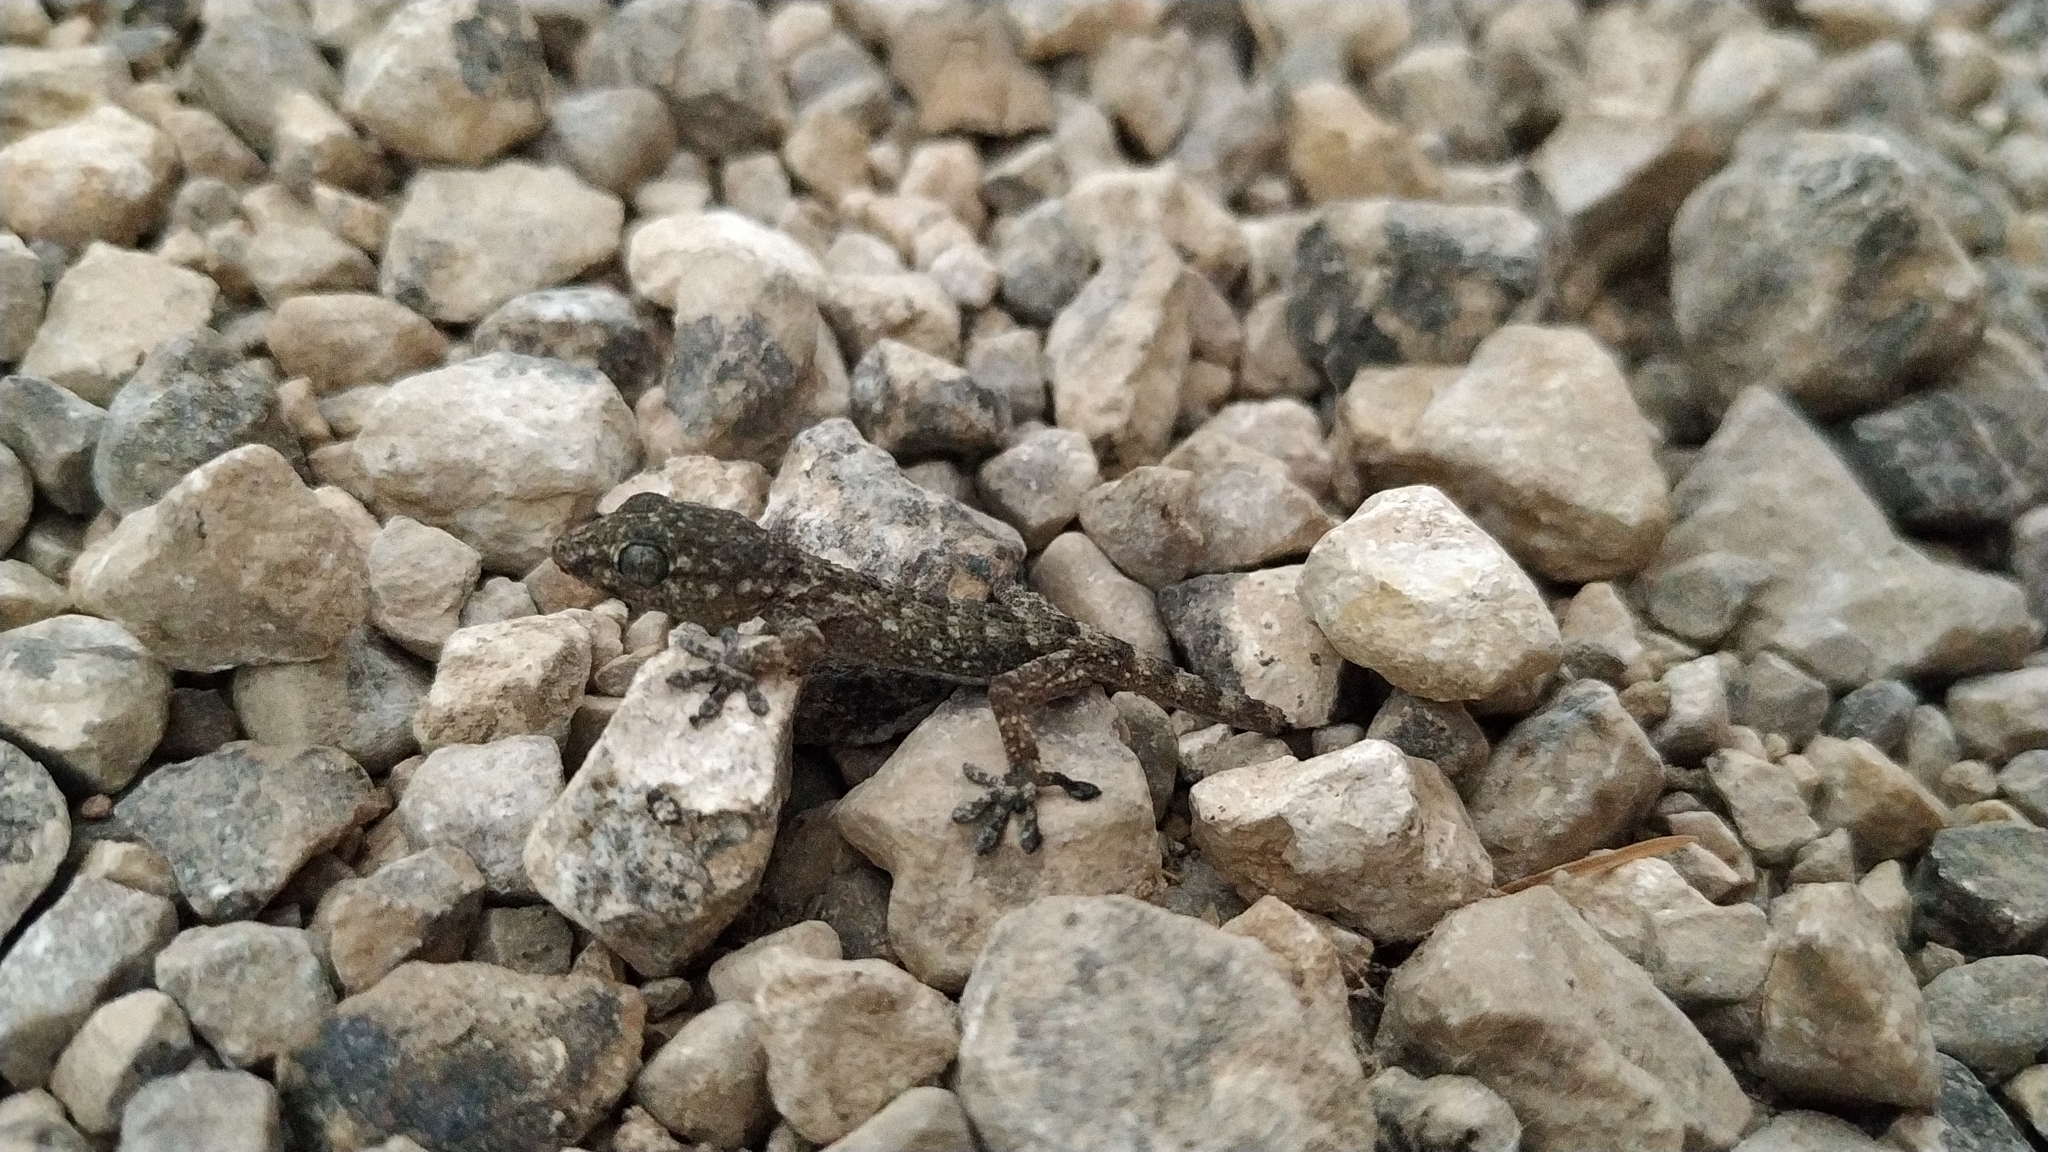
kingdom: Animalia
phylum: Chordata
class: Squamata
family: Phyllodactylidae
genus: Tarentola
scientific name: Tarentola mauritanica
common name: Moorish gecko
